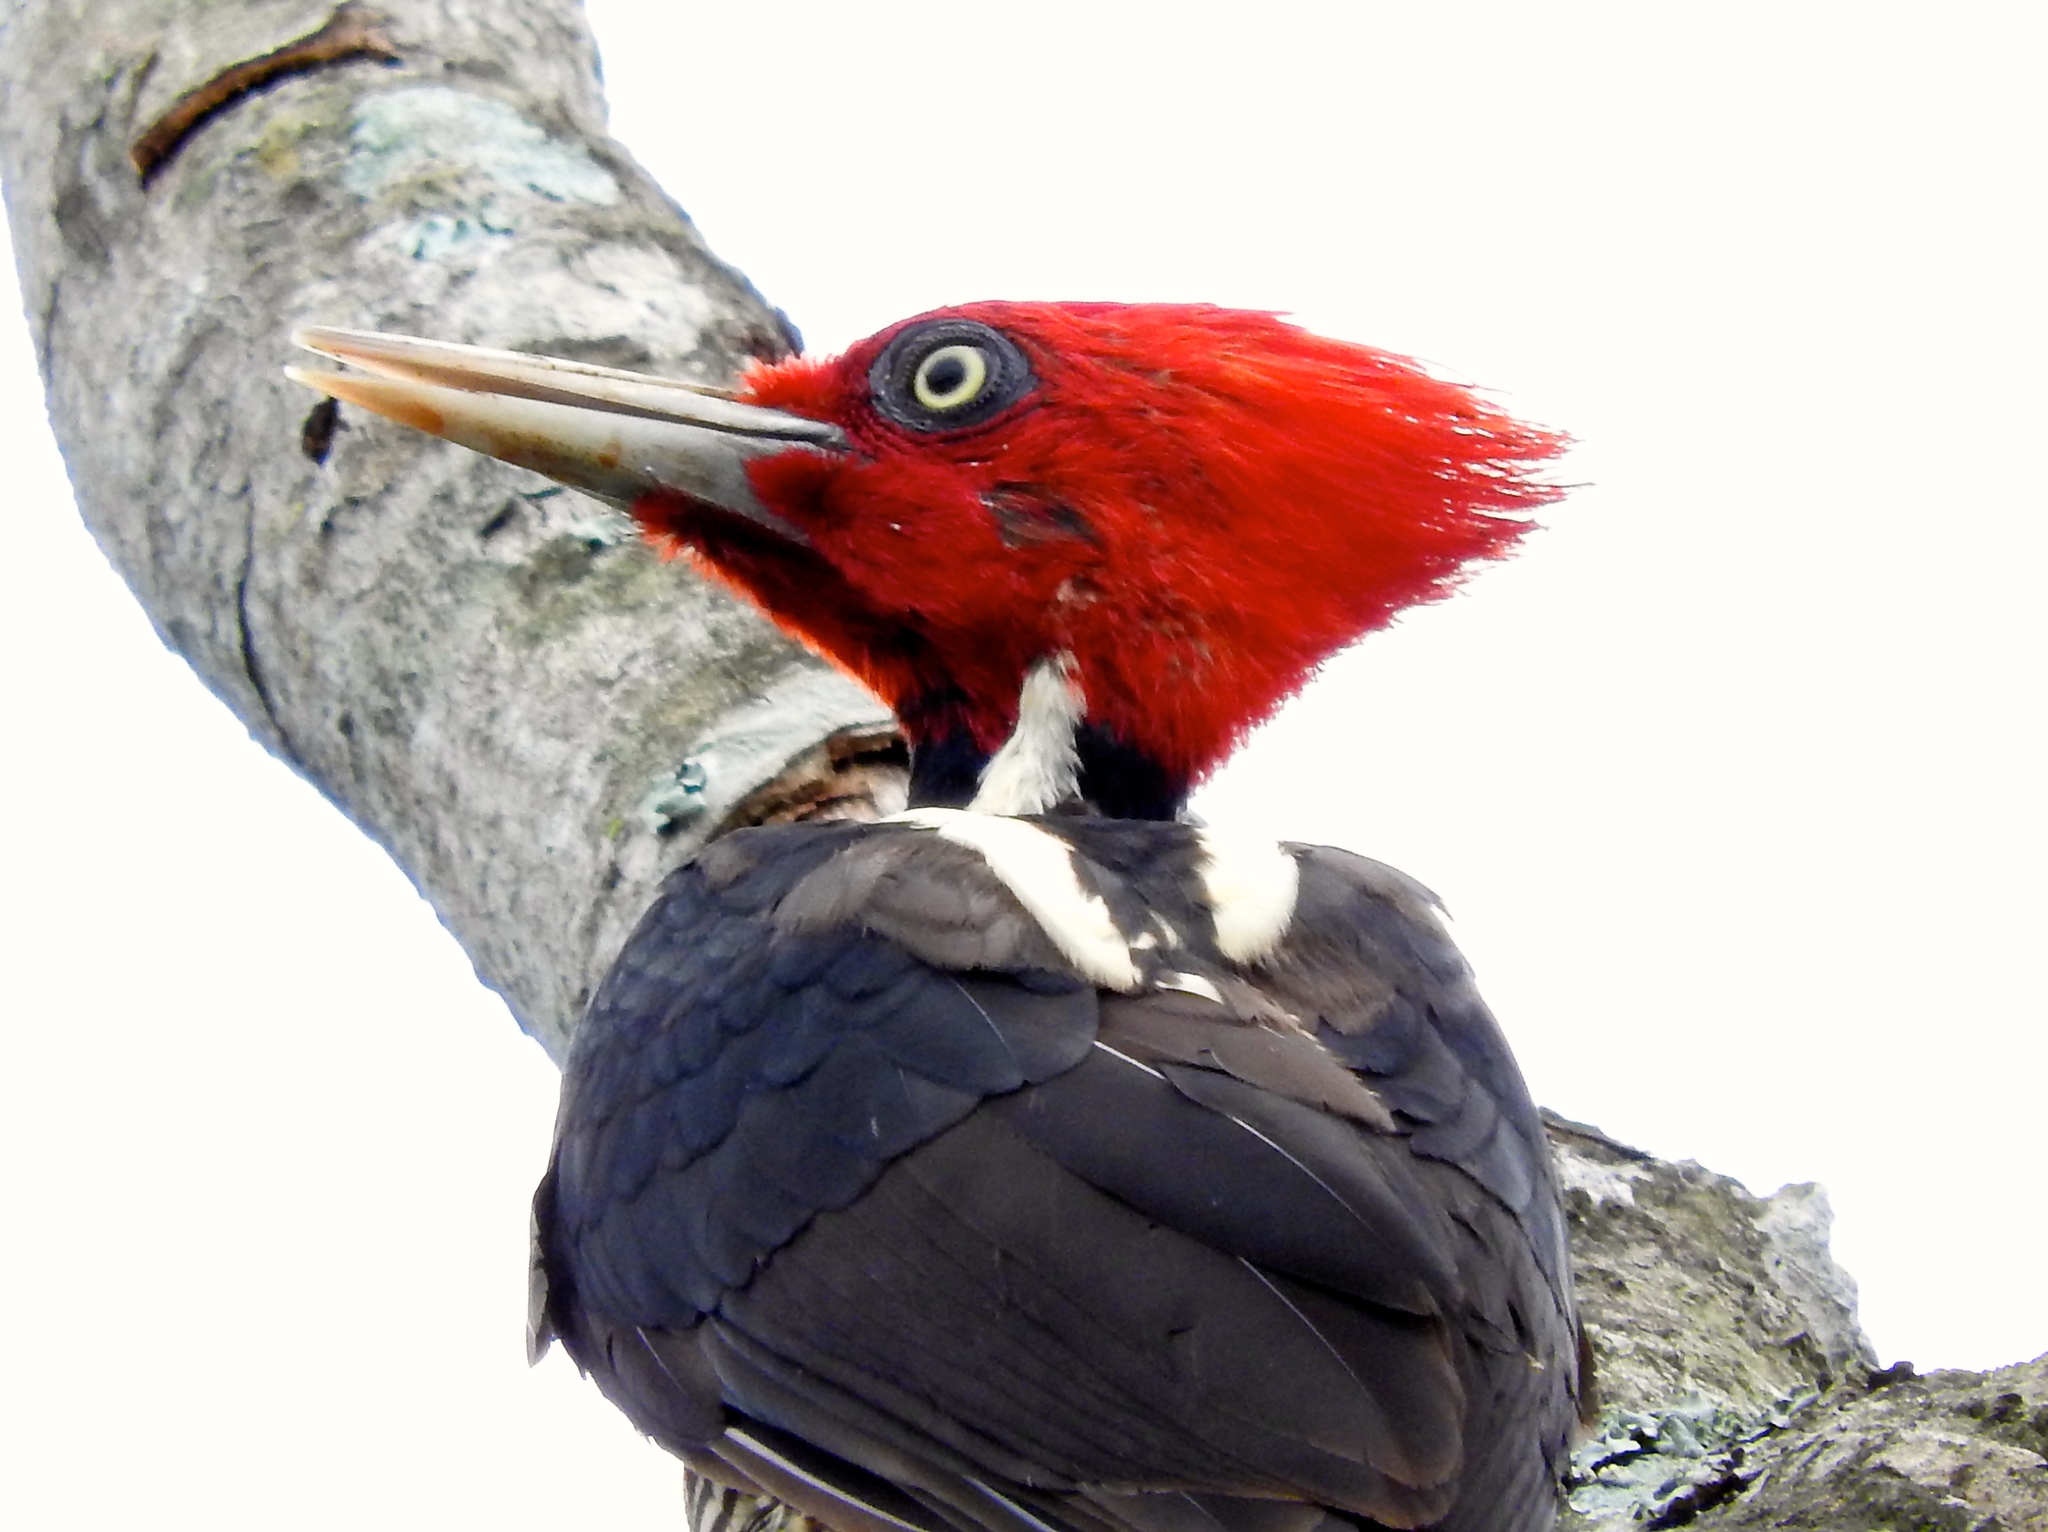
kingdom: Animalia
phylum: Chordata
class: Aves
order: Piciformes
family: Picidae
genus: Campephilus
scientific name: Campephilus guatemalensis
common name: Pale-billed woodpecker
